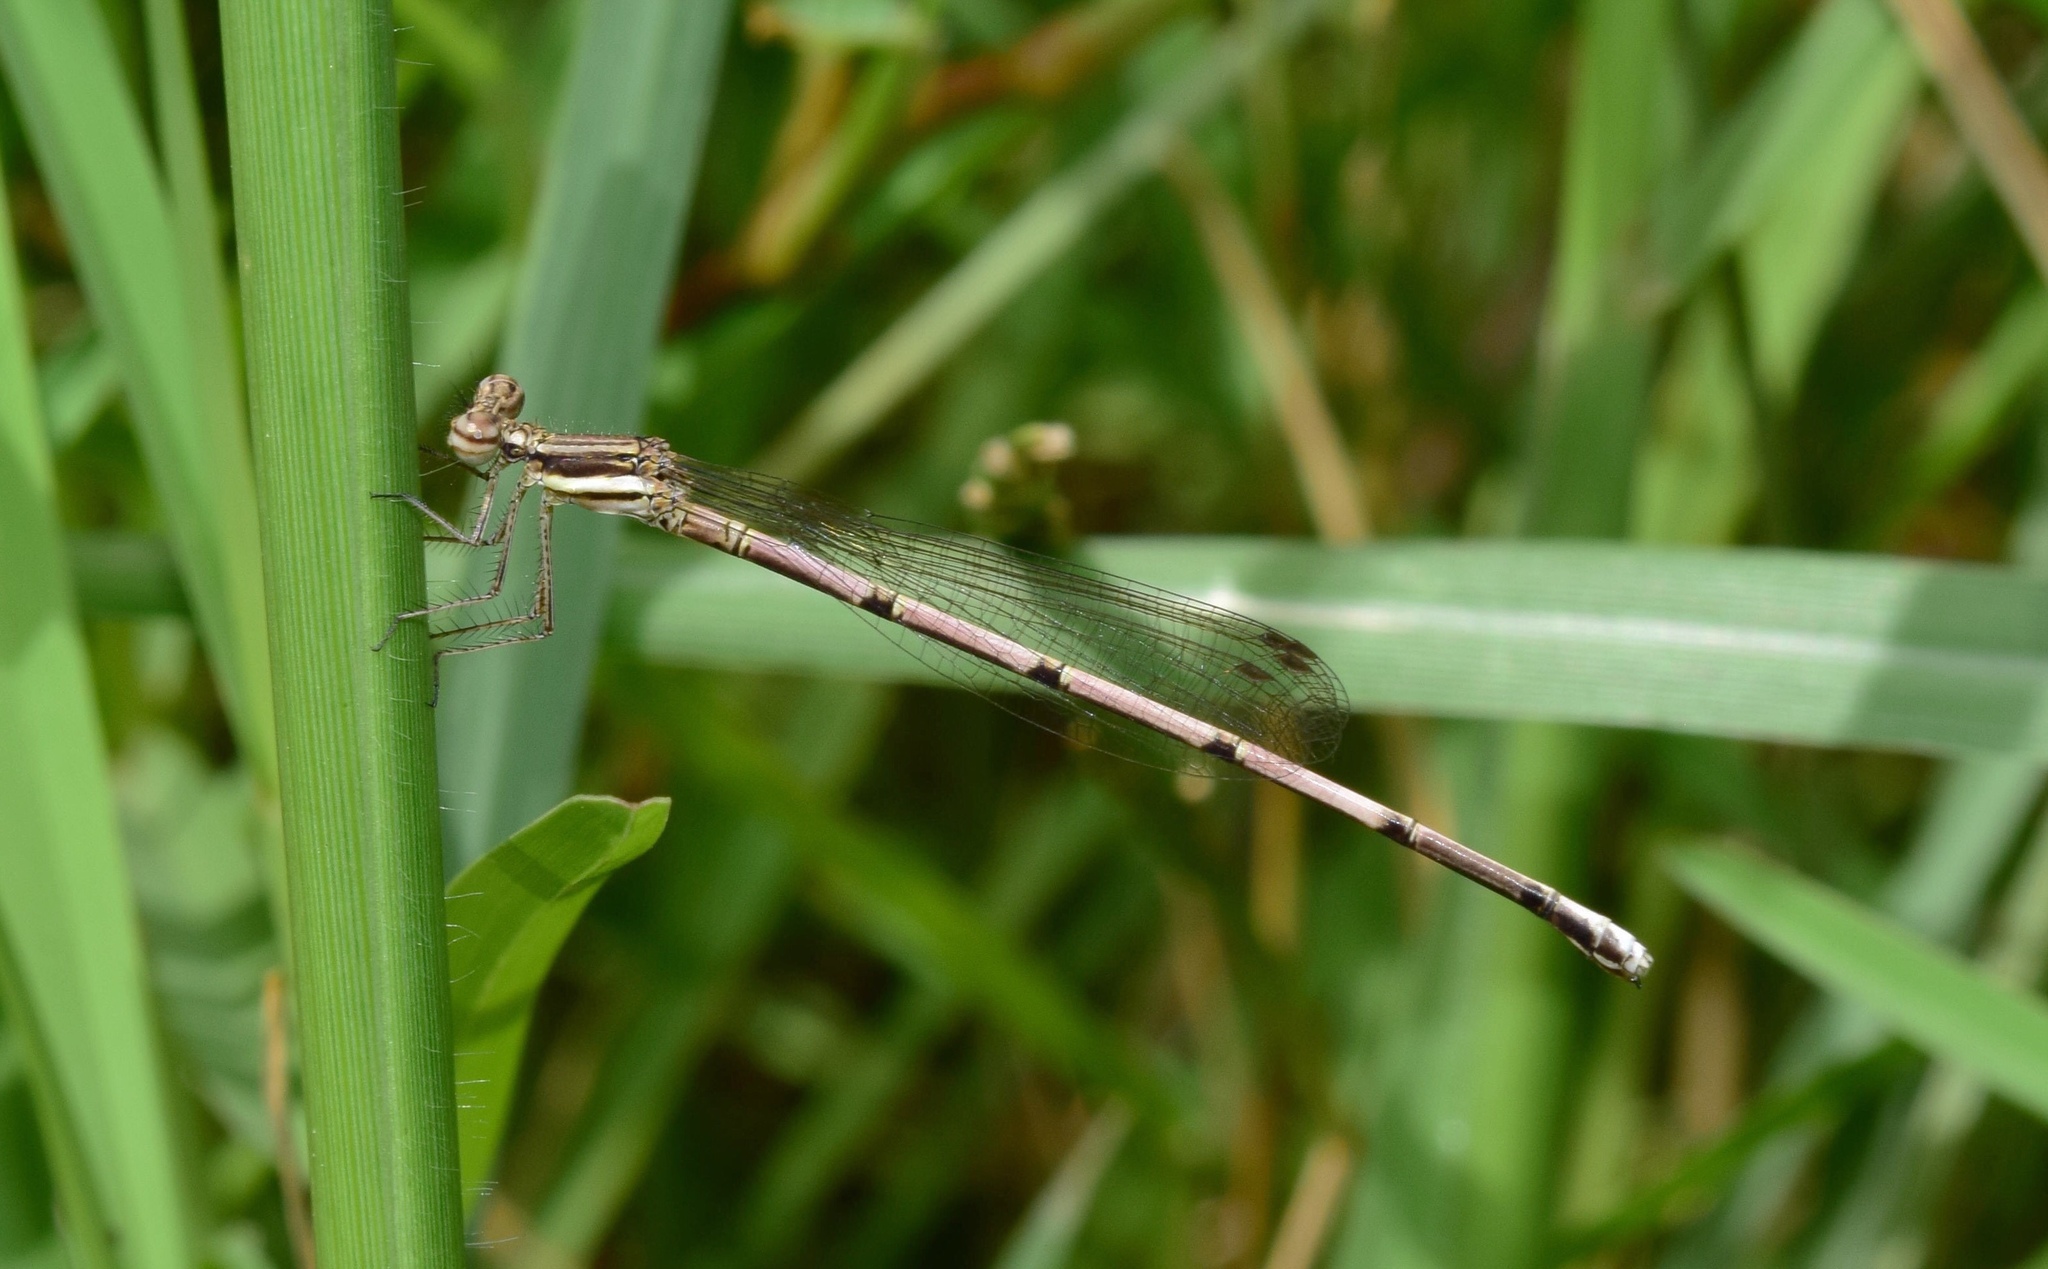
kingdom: Animalia
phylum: Arthropoda
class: Insecta
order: Odonata
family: Platycnemididae
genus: Elattoneura
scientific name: Elattoneura glauca
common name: Common threadtail
